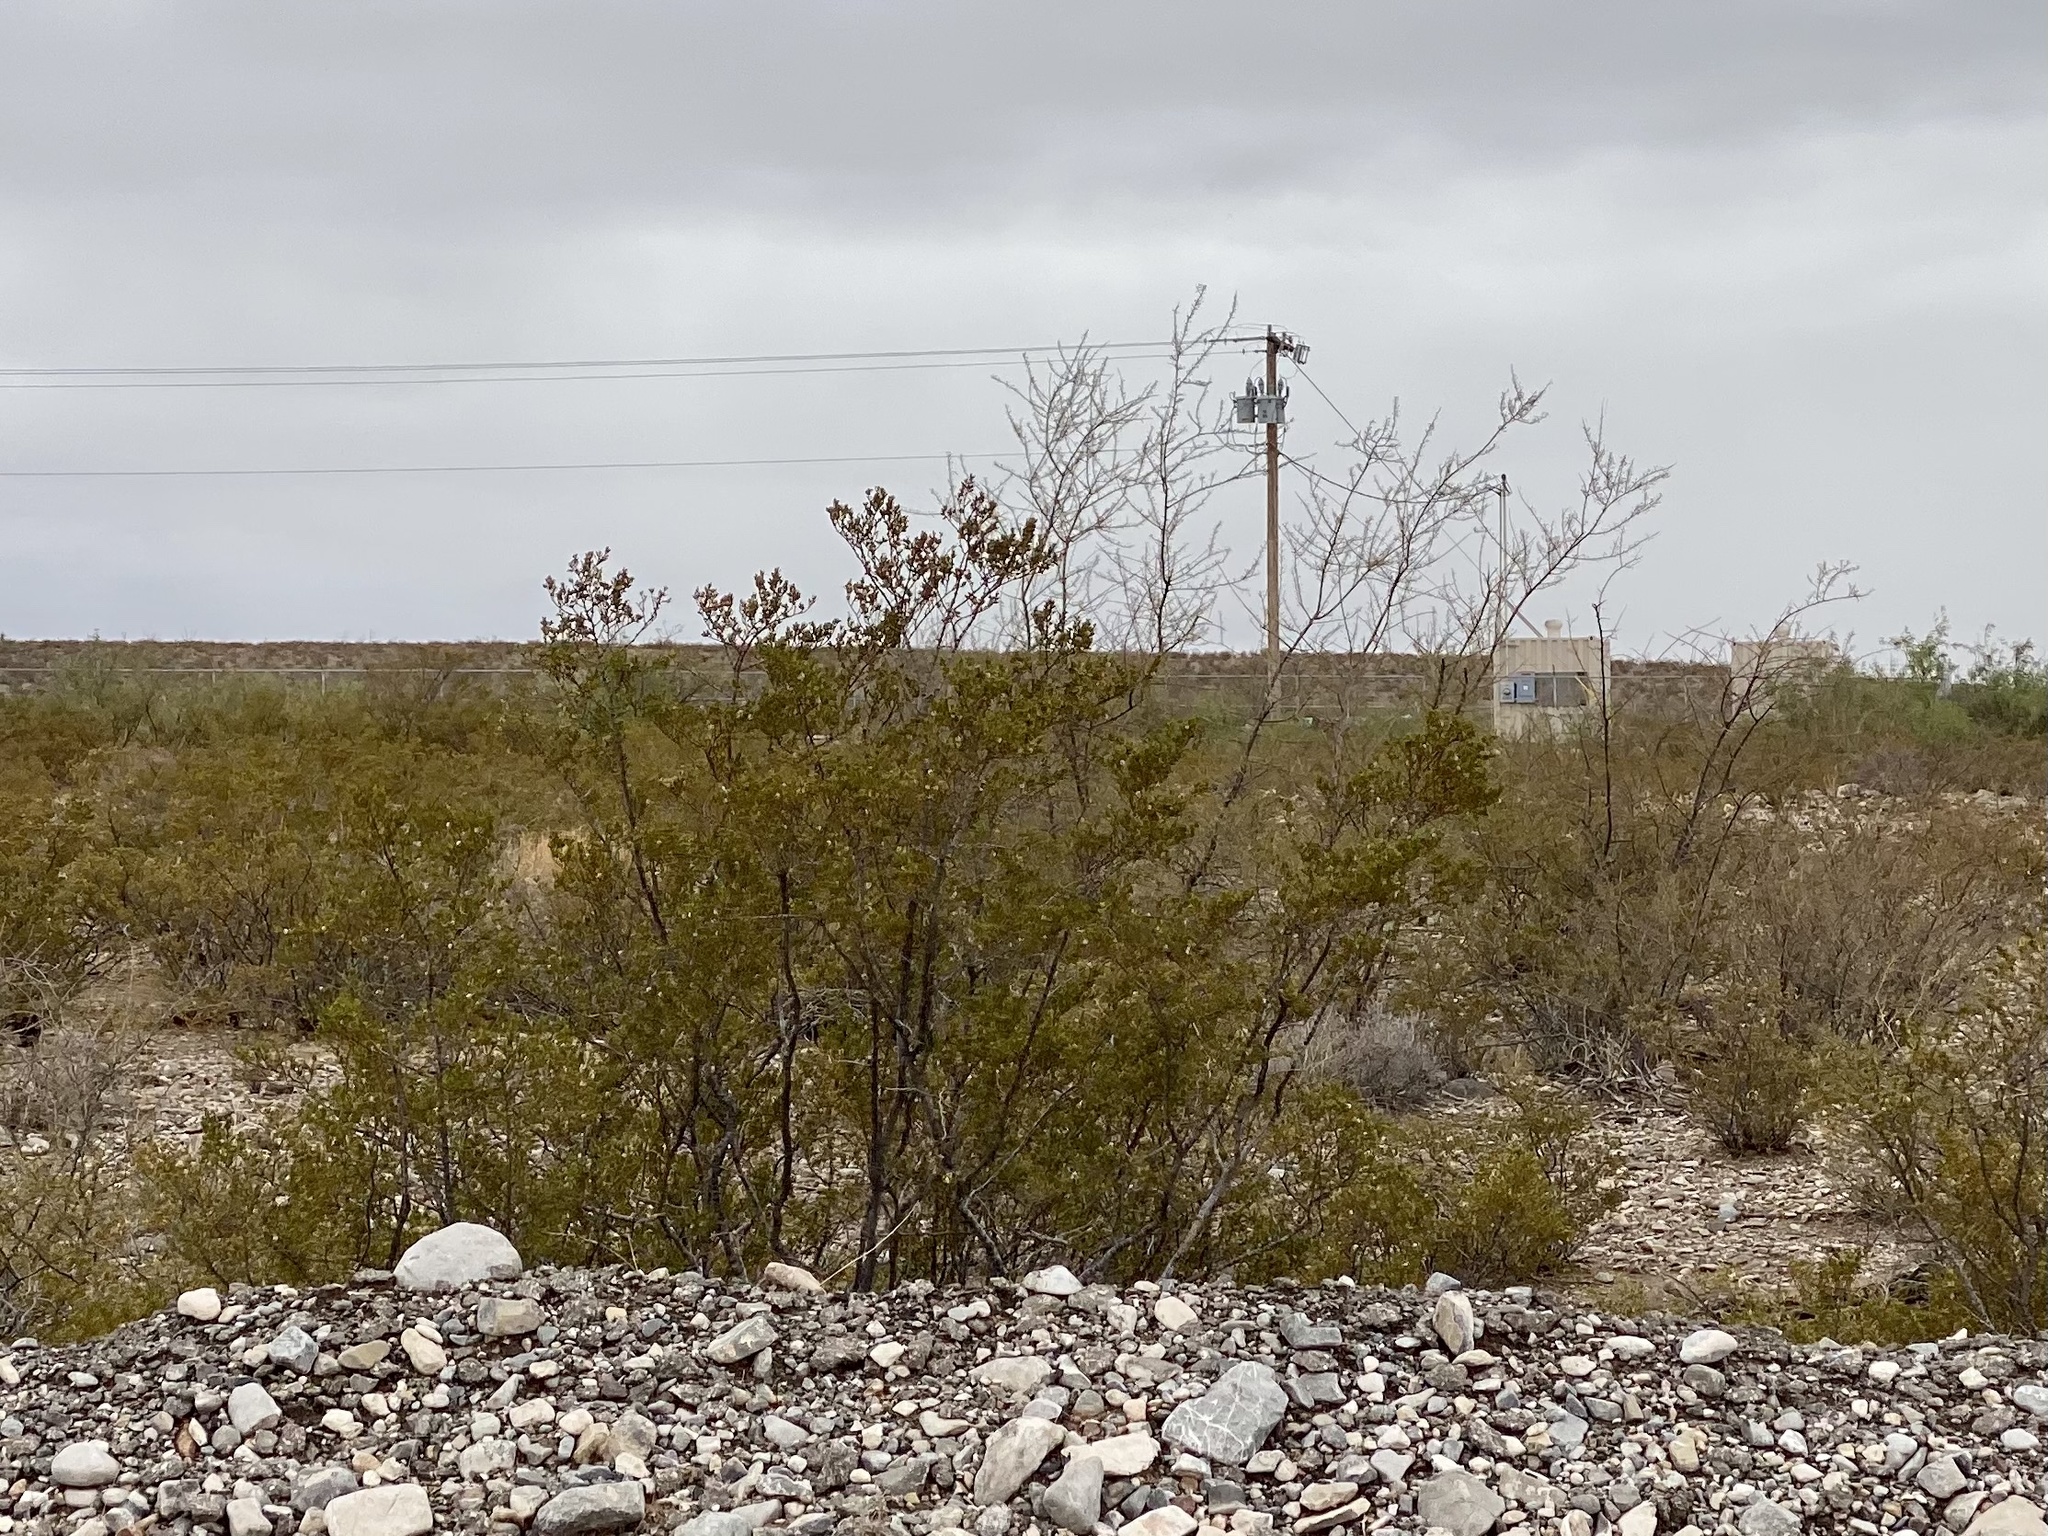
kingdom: Plantae
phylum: Tracheophyta
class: Magnoliopsida
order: Zygophyllales
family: Zygophyllaceae
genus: Larrea
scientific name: Larrea tridentata
